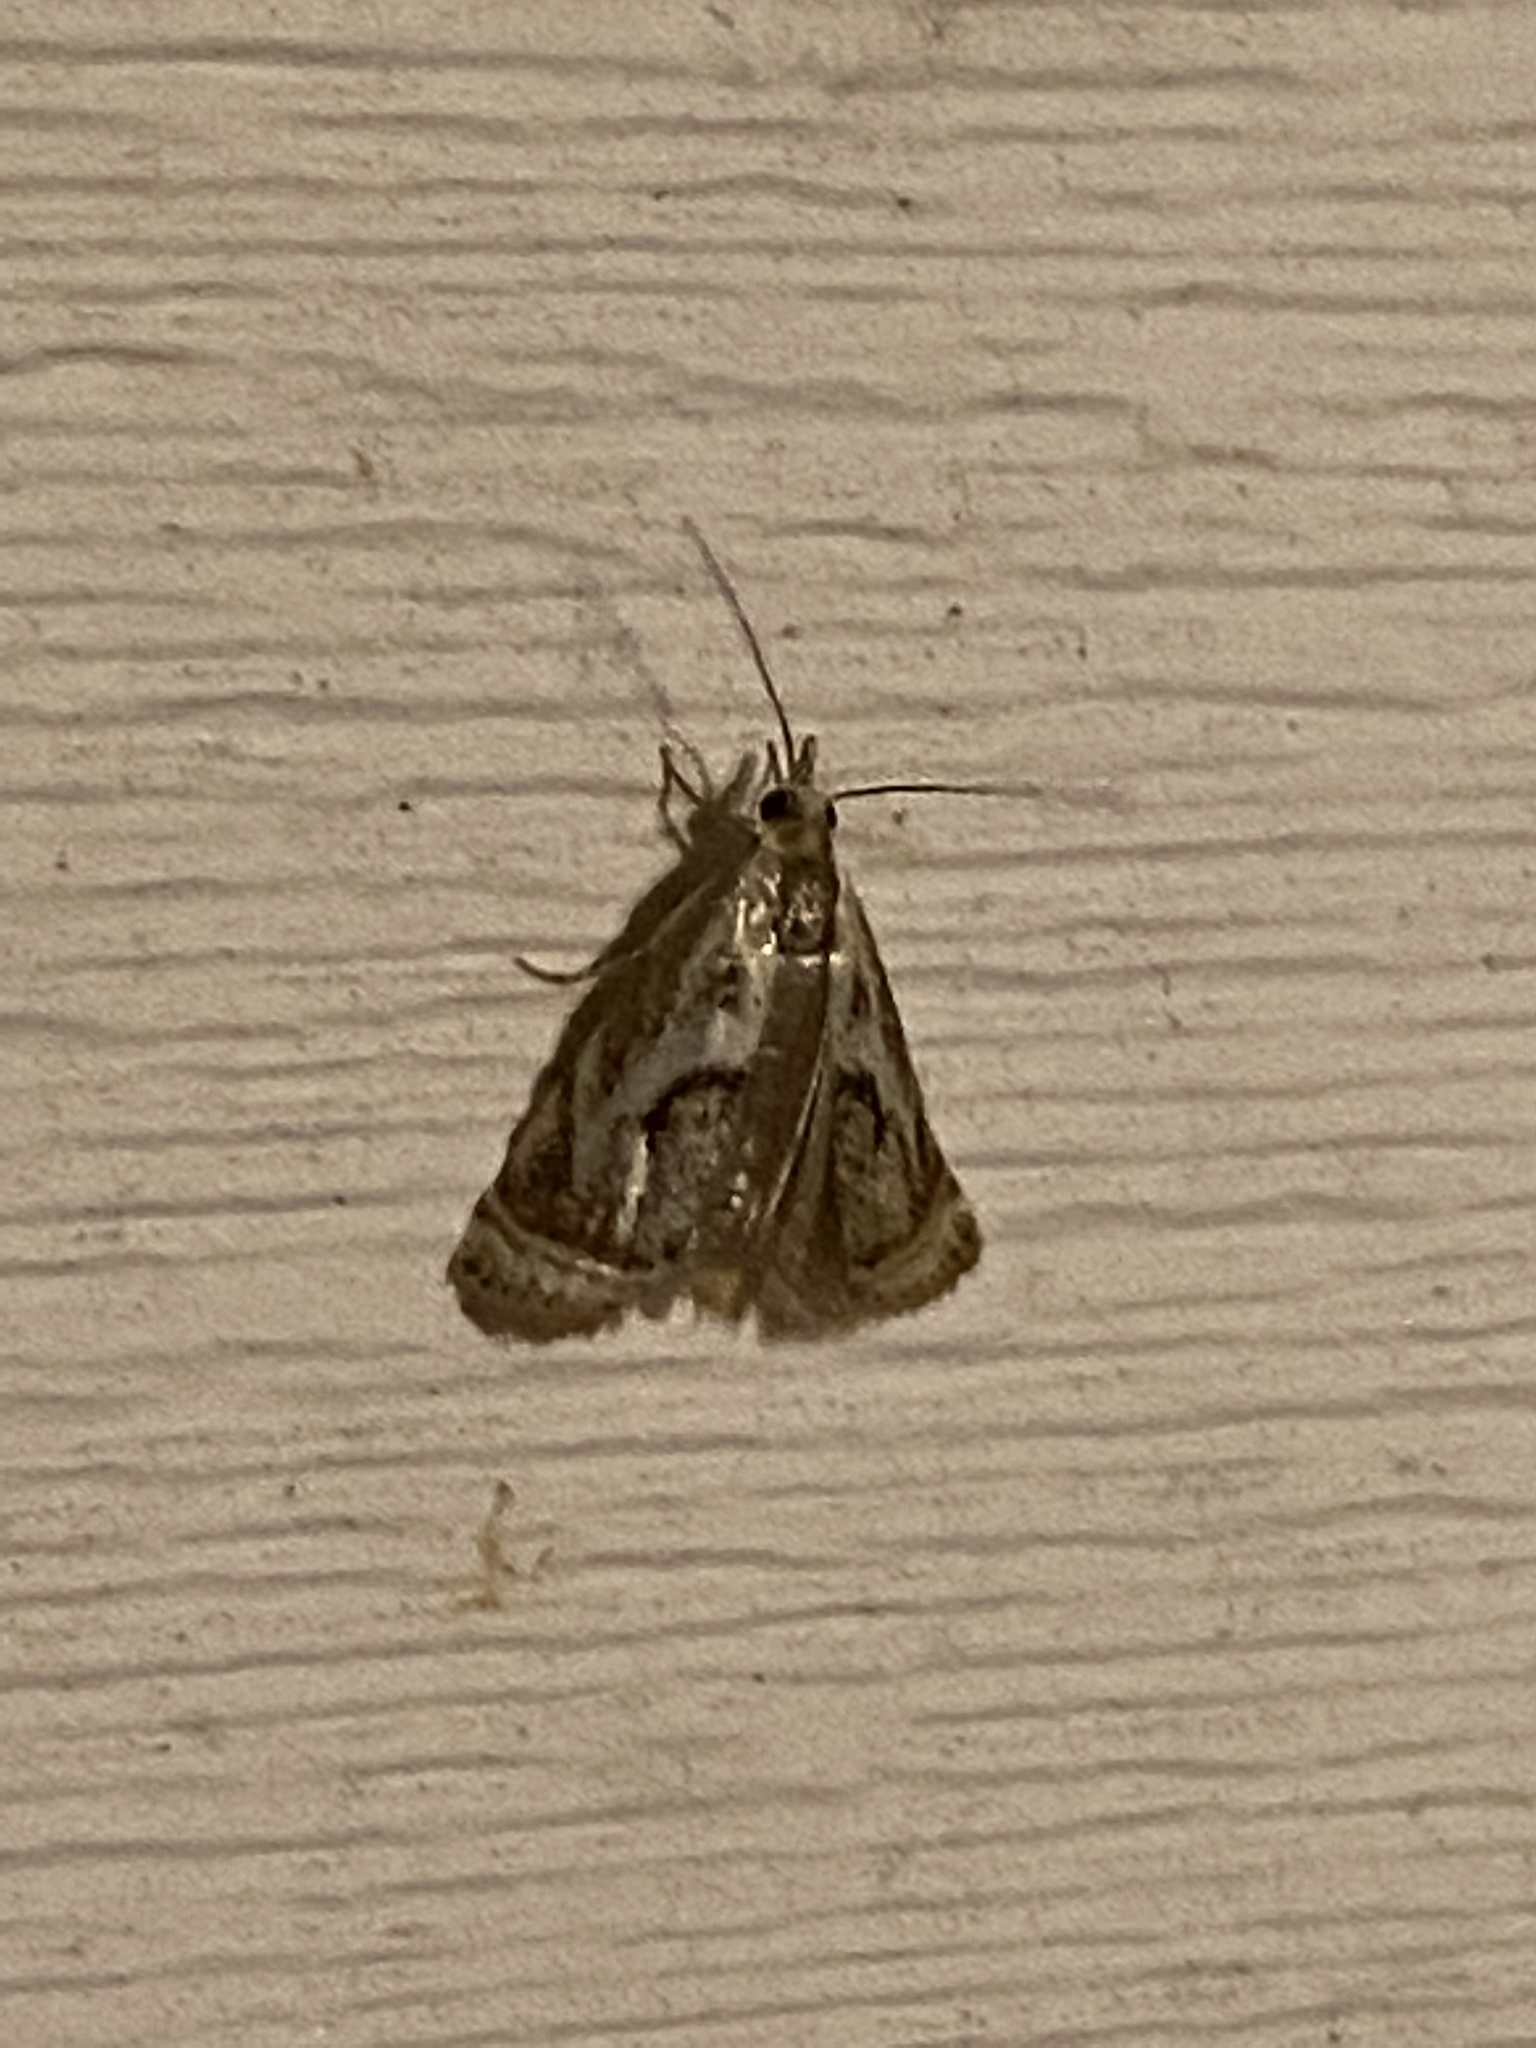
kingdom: Animalia
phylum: Arthropoda
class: Insecta
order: Lepidoptera
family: Crambidae
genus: Microcrambus
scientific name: Microcrambus elegans
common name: Elegant grass-veneer
